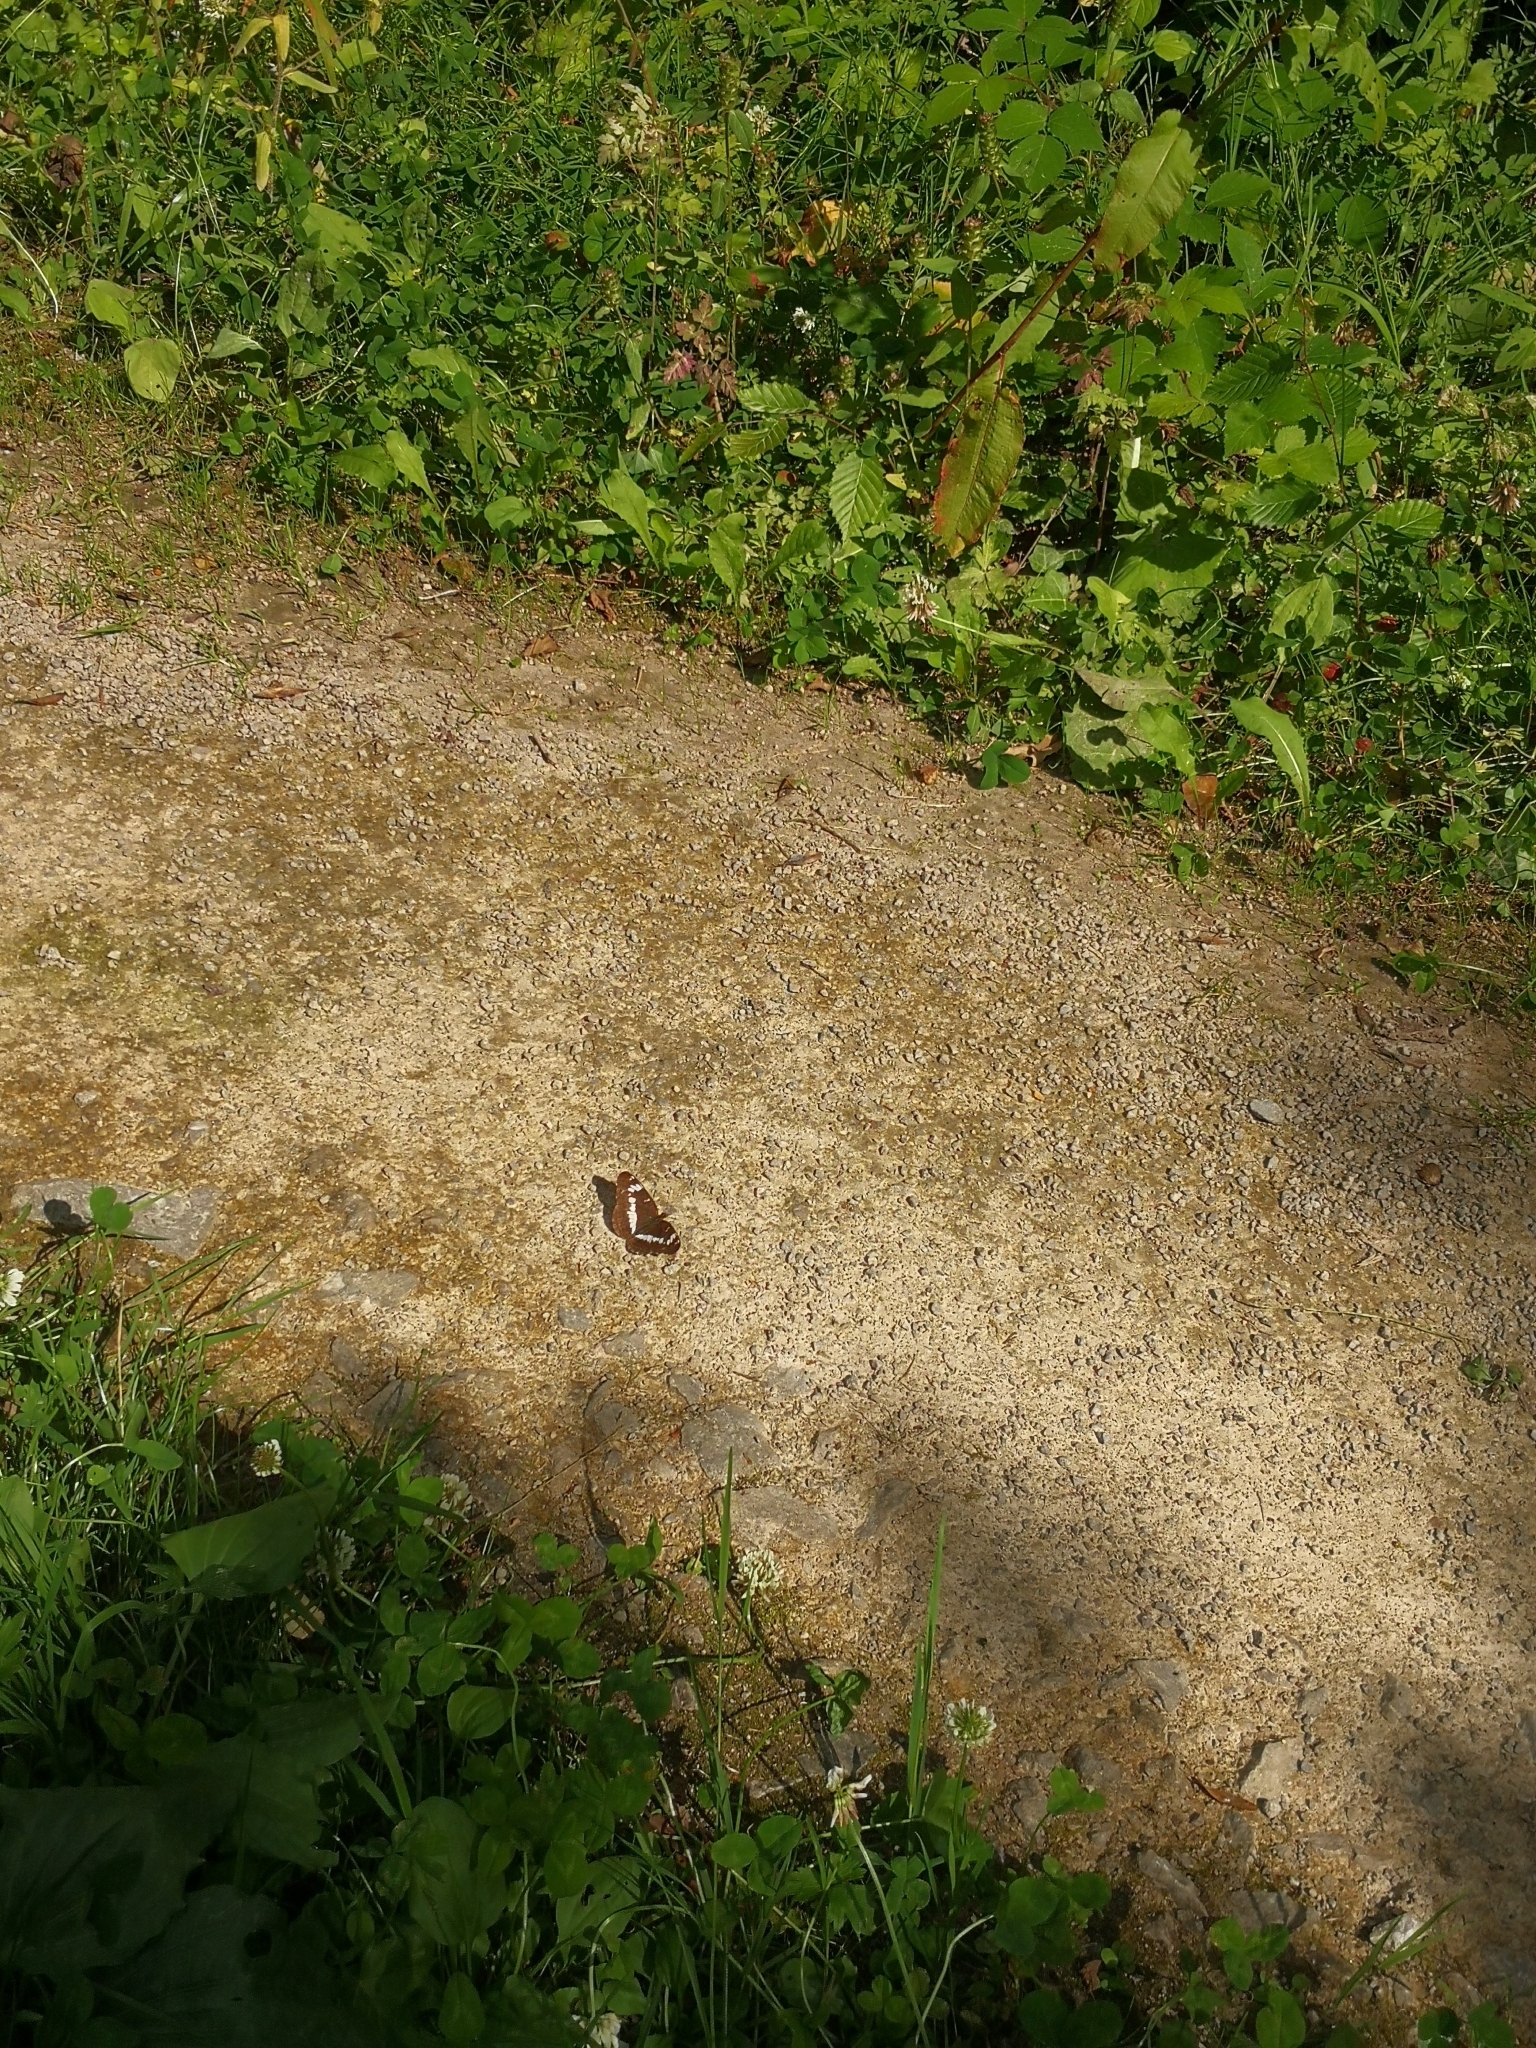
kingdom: Animalia
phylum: Arthropoda
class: Insecta
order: Lepidoptera
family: Nymphalidae
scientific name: Nymphalidae
